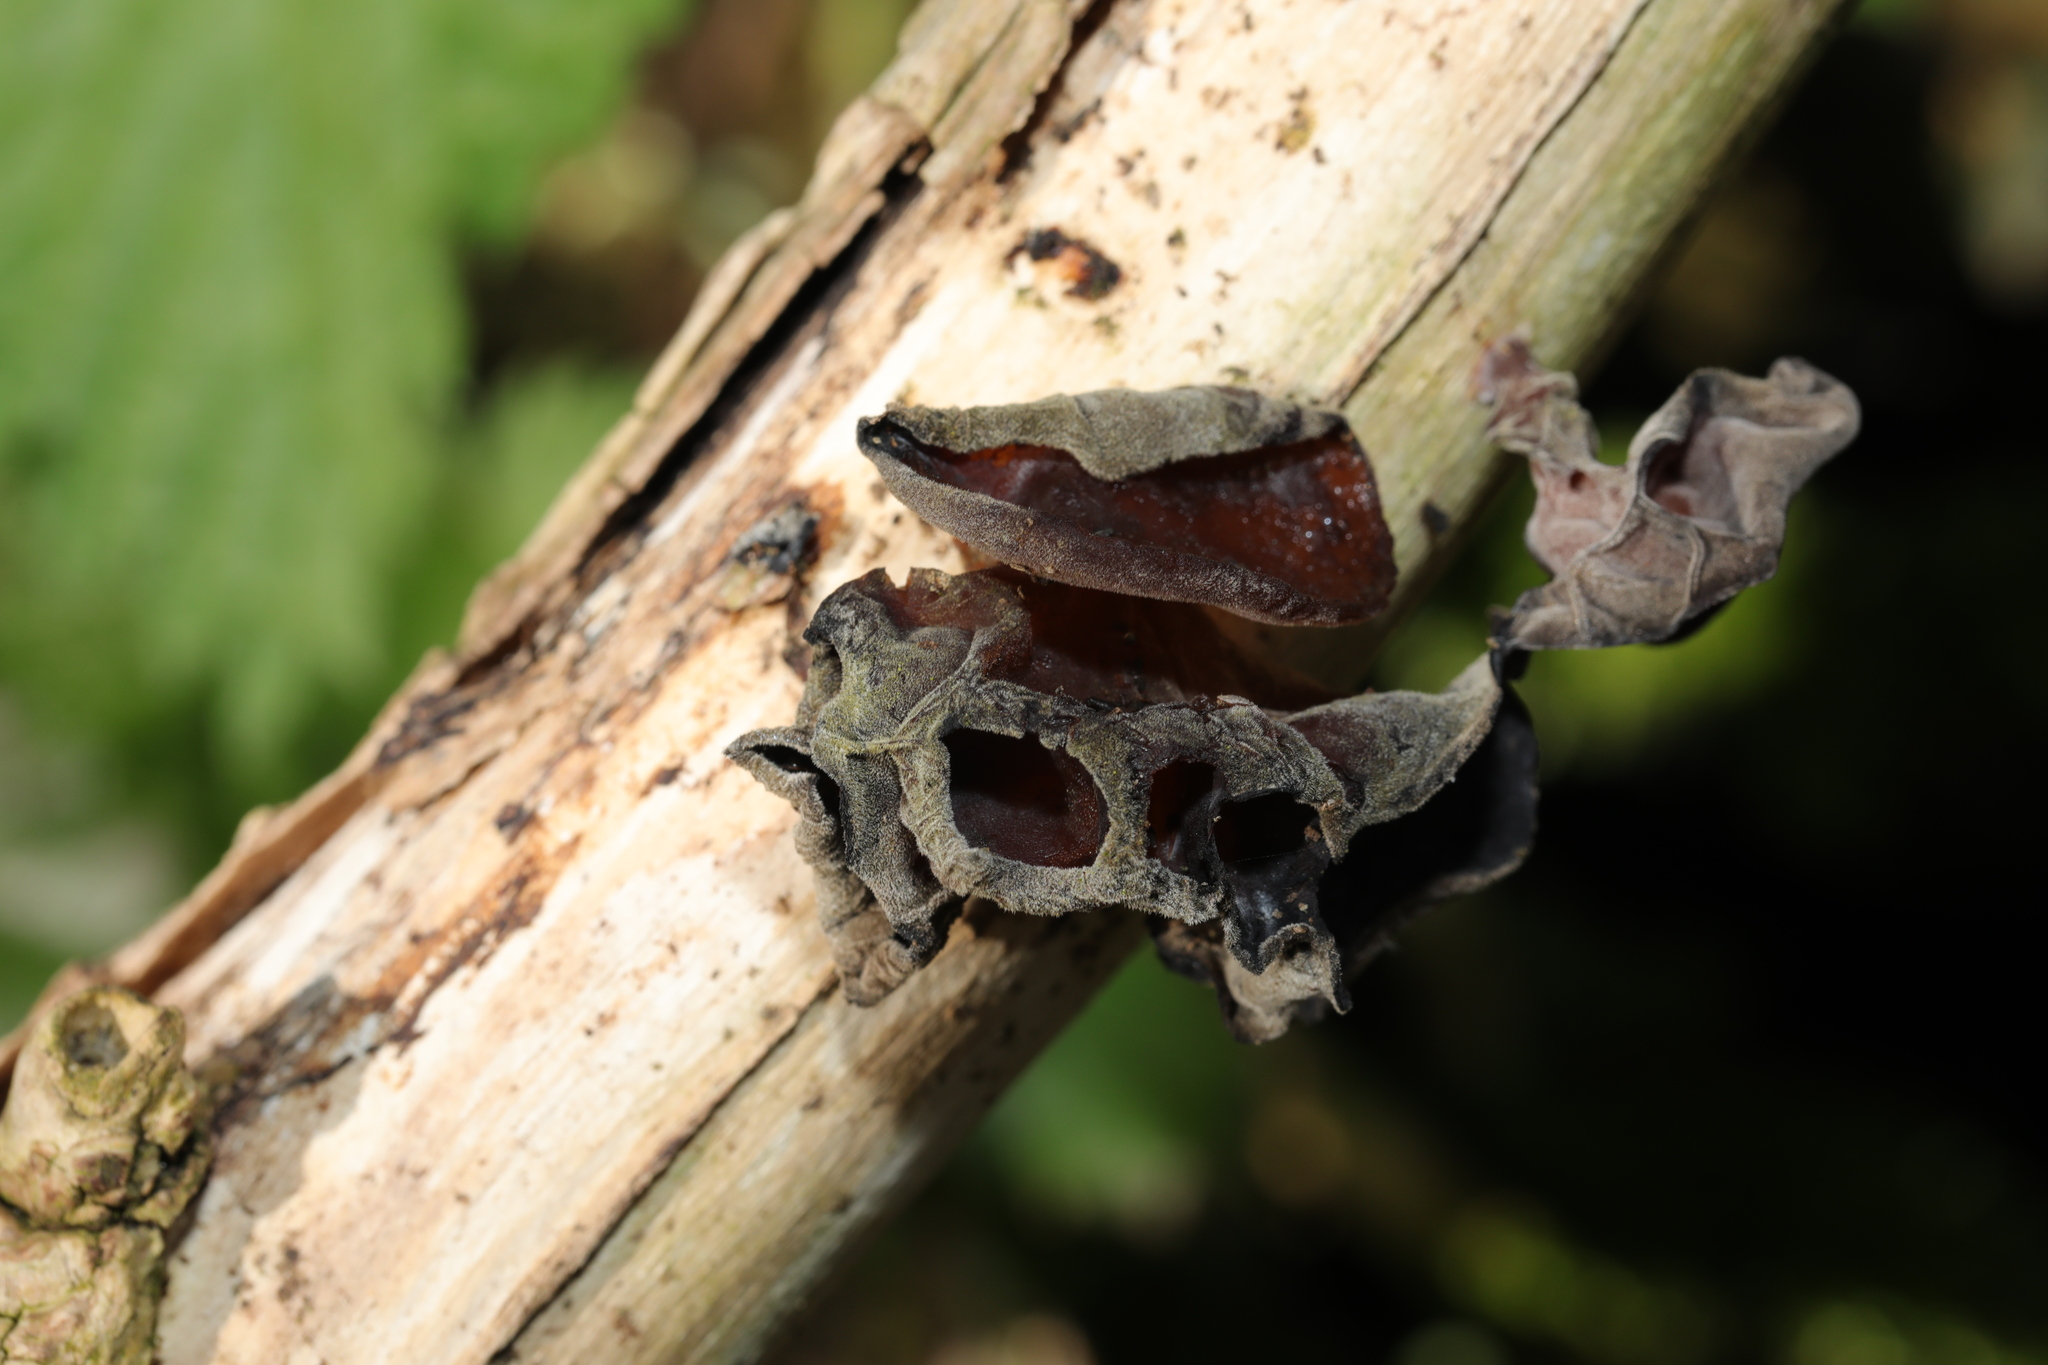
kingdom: Fungi
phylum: Basidiomycota
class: Agaricomycetes
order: Auriculariales
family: Auriculariaceae
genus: Auricularia
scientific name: Auricularia auricula-judae
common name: Jelly ear
